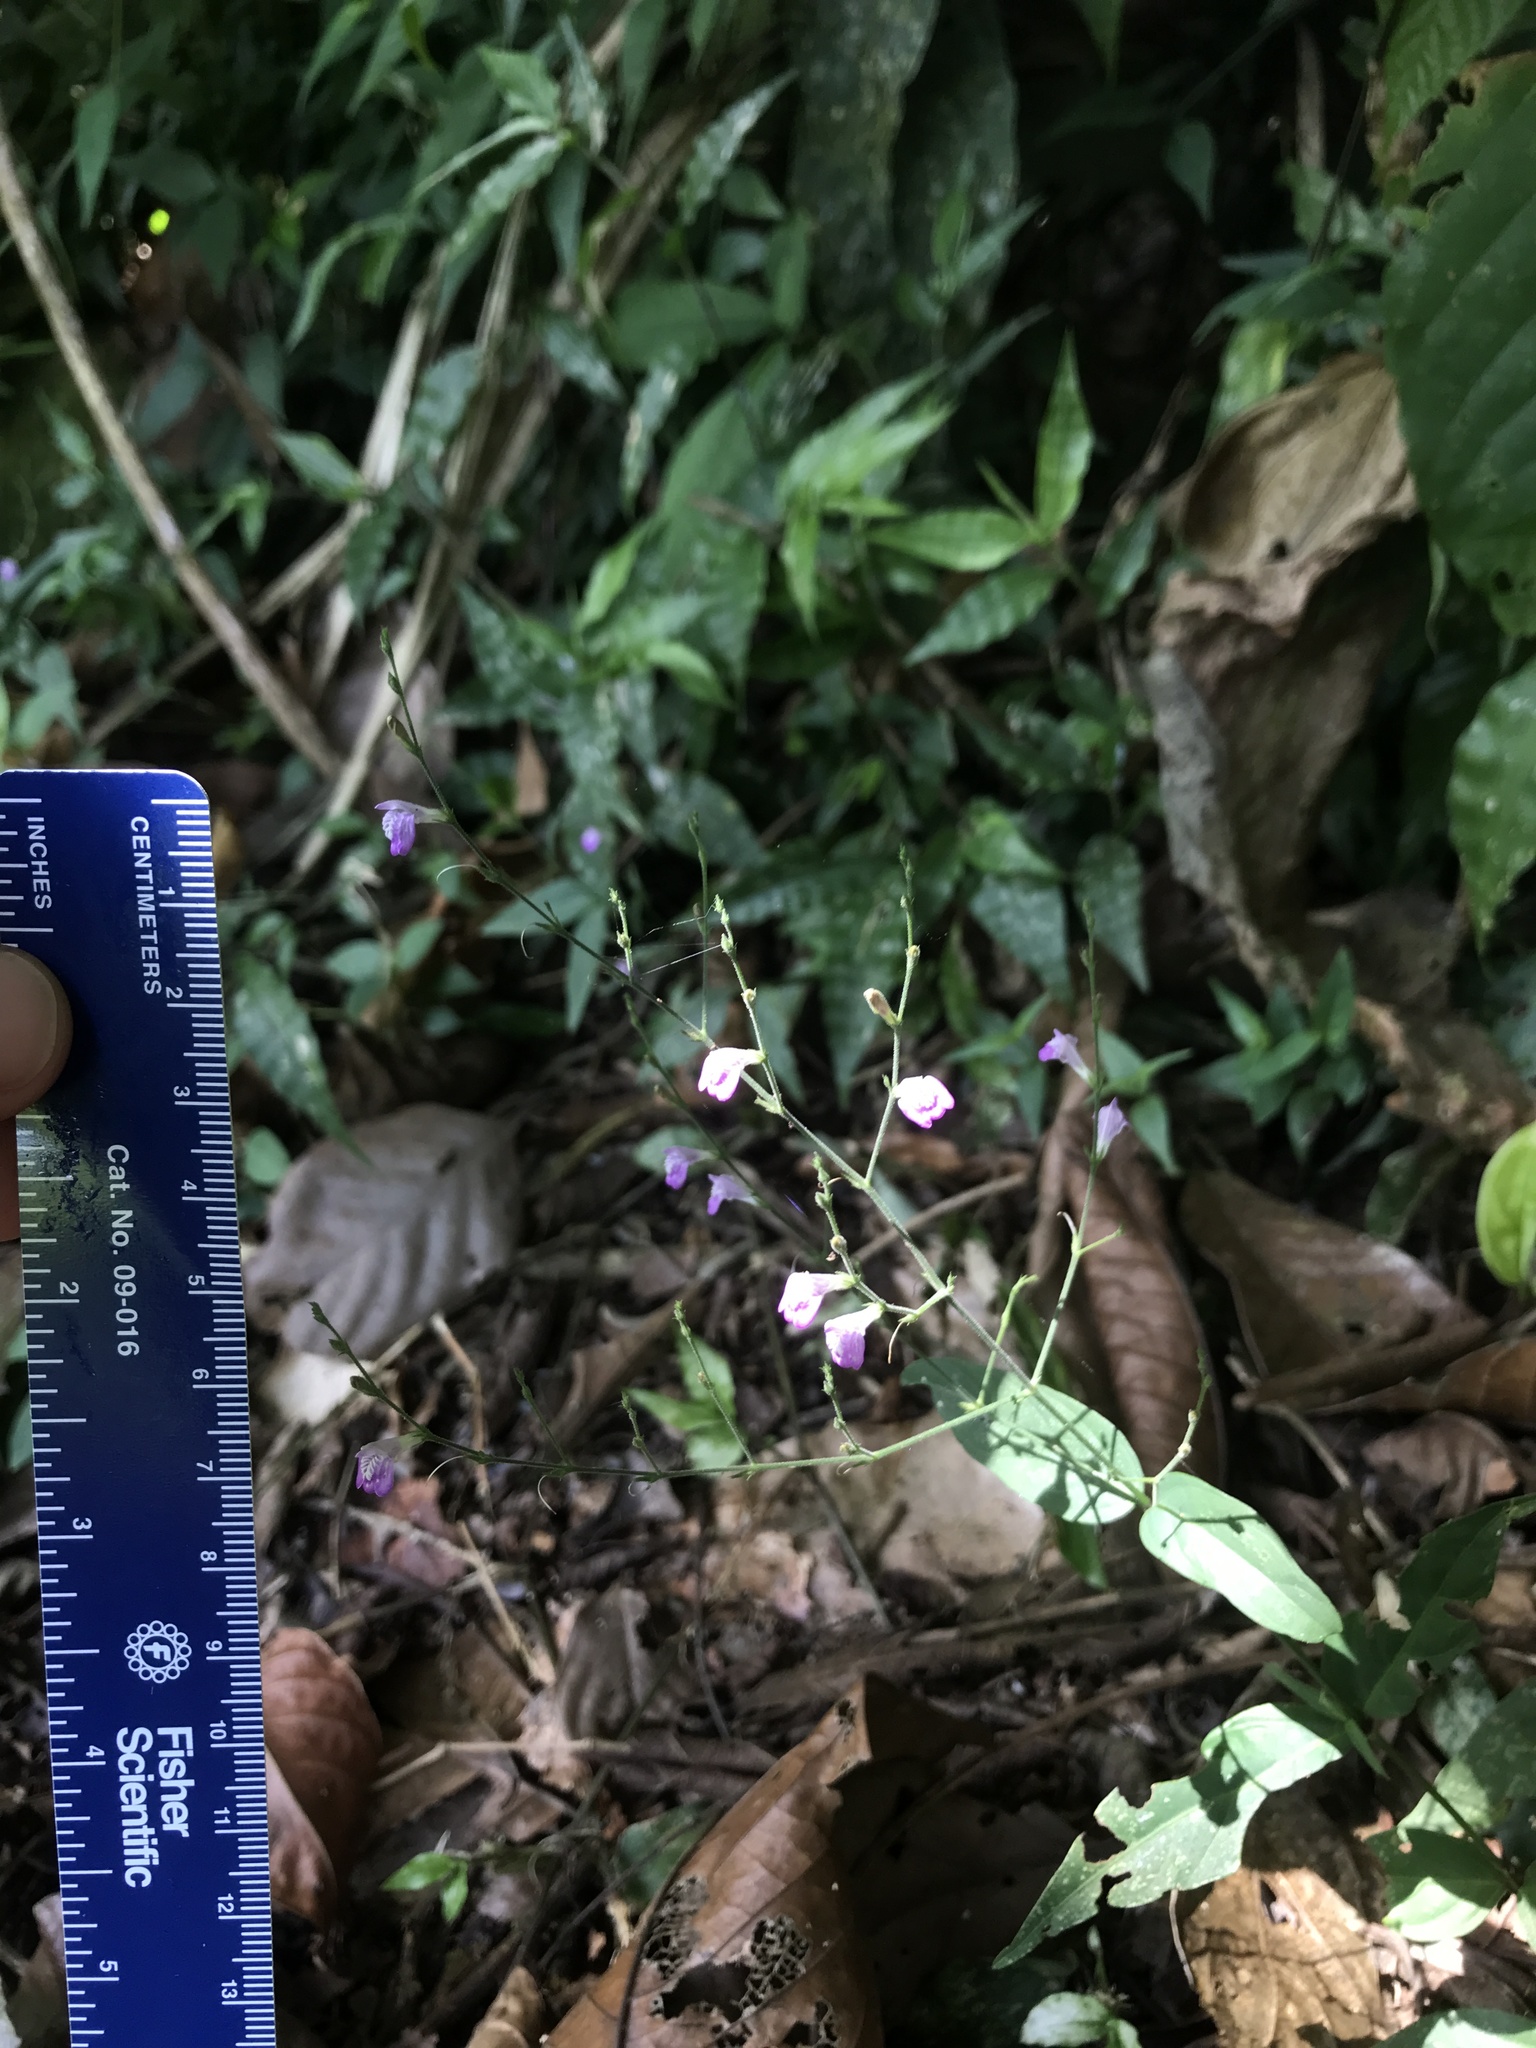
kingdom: Plantae
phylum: Tracheophyta
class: Magnoliopsida
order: Lamiales
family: Acanthaceae
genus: Dianthera
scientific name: Dianthera pectoralis
